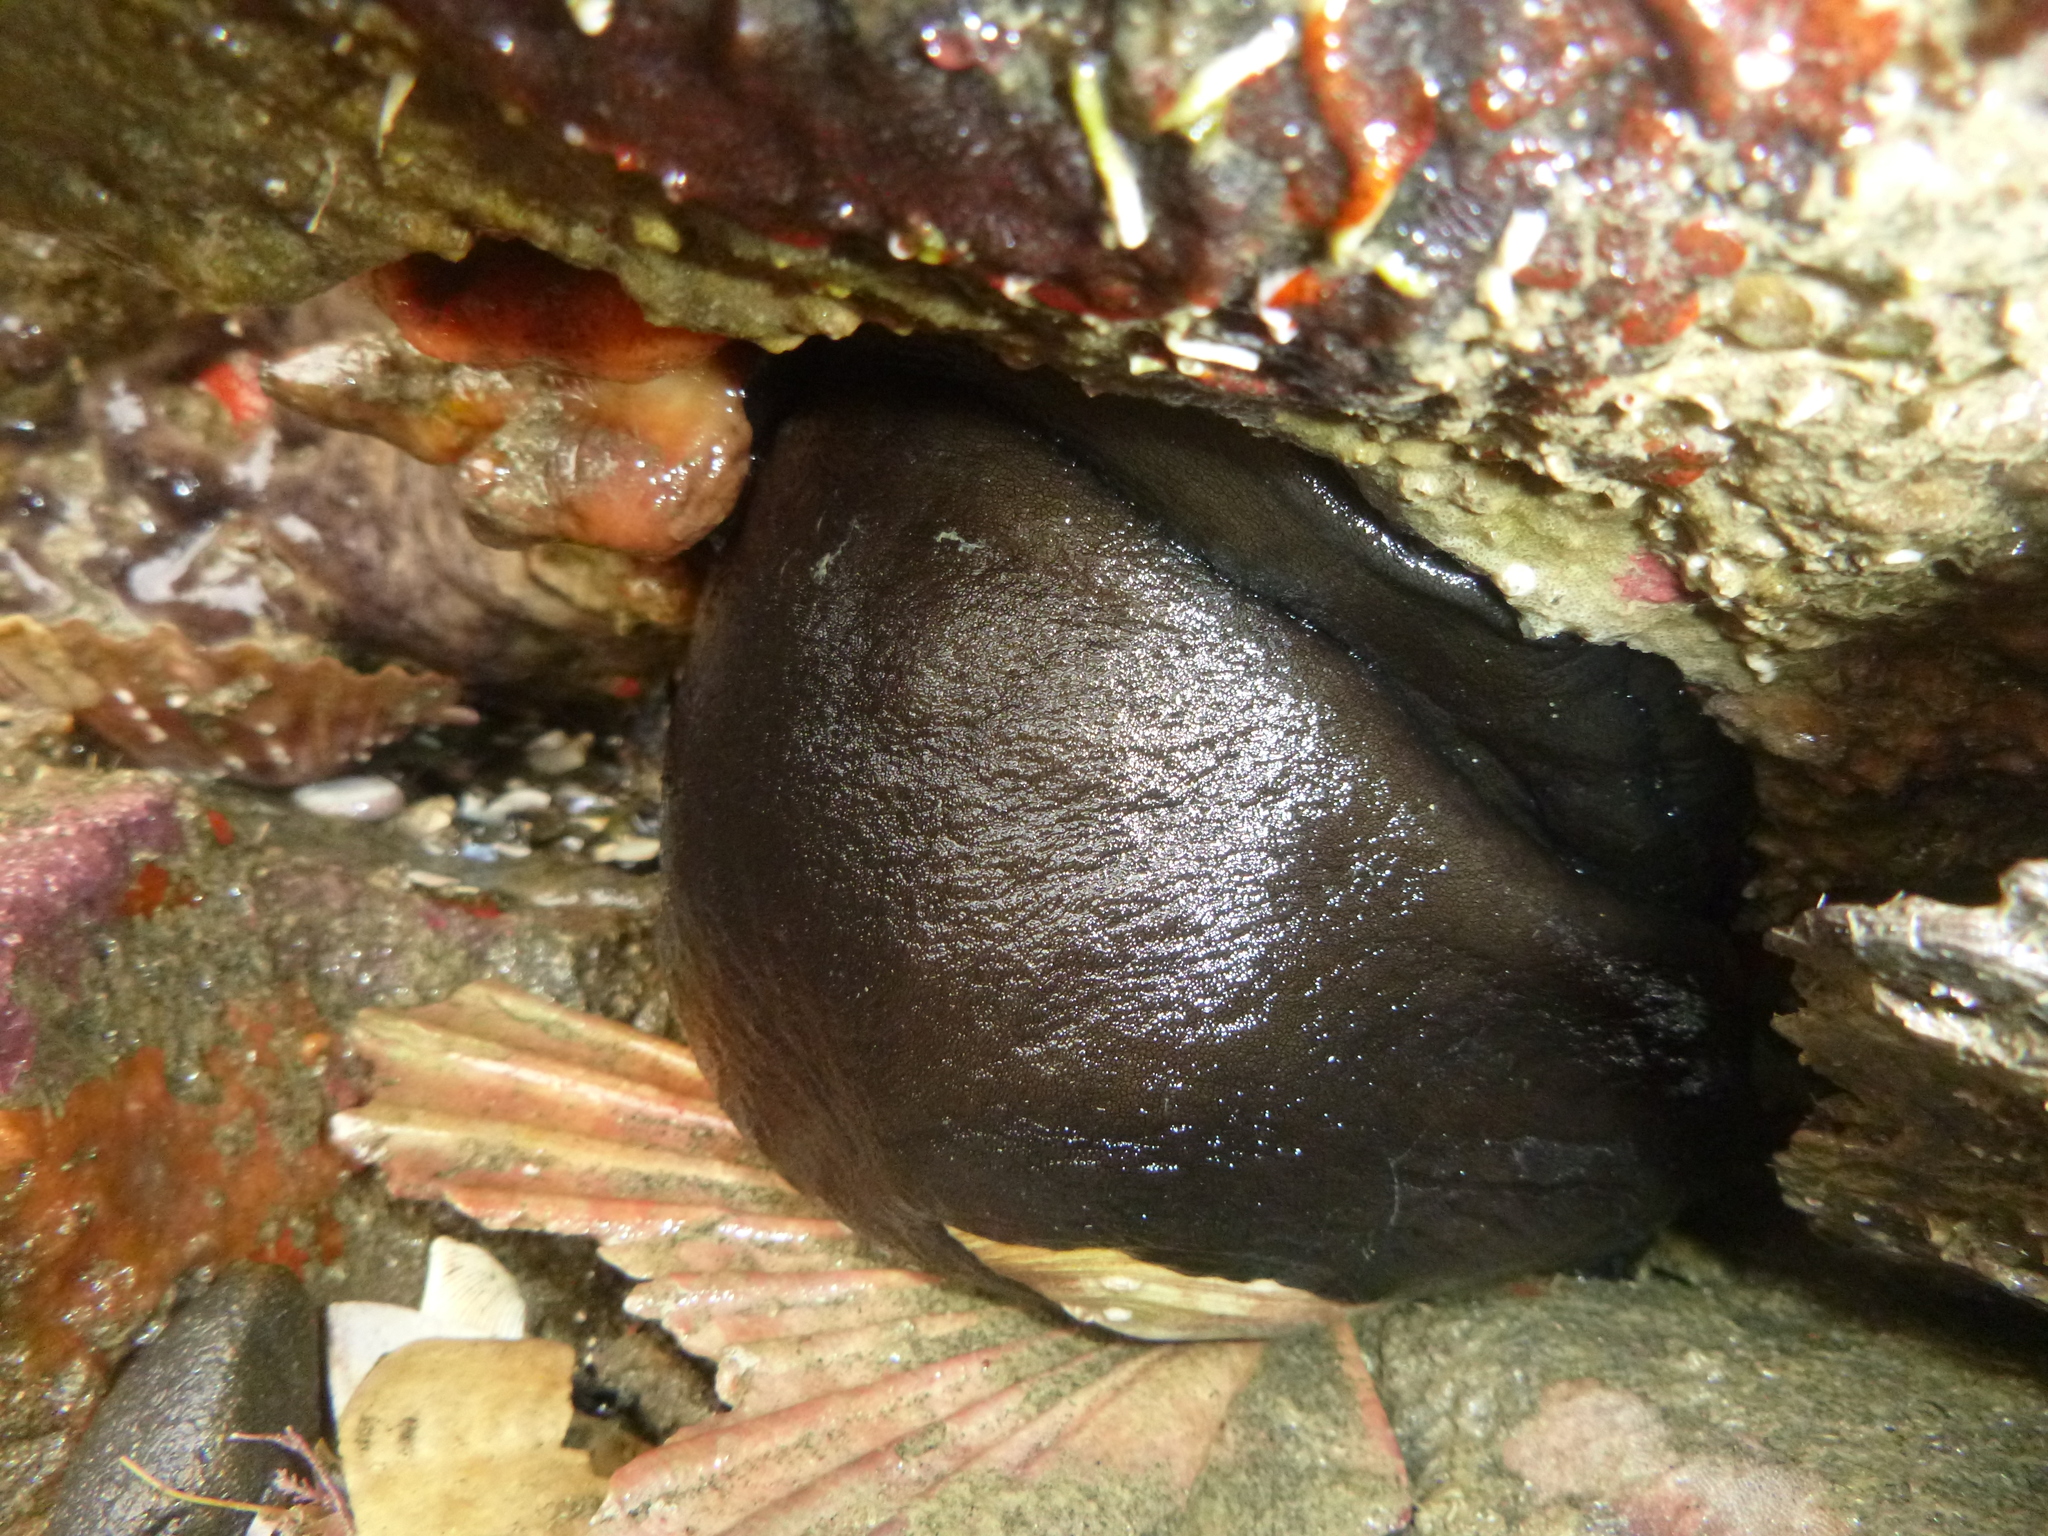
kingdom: Animalia
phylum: Mollusca
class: Gastropoda
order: Lepetellida
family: Fissurellidae
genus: Scutus
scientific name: Scutus breviculus
